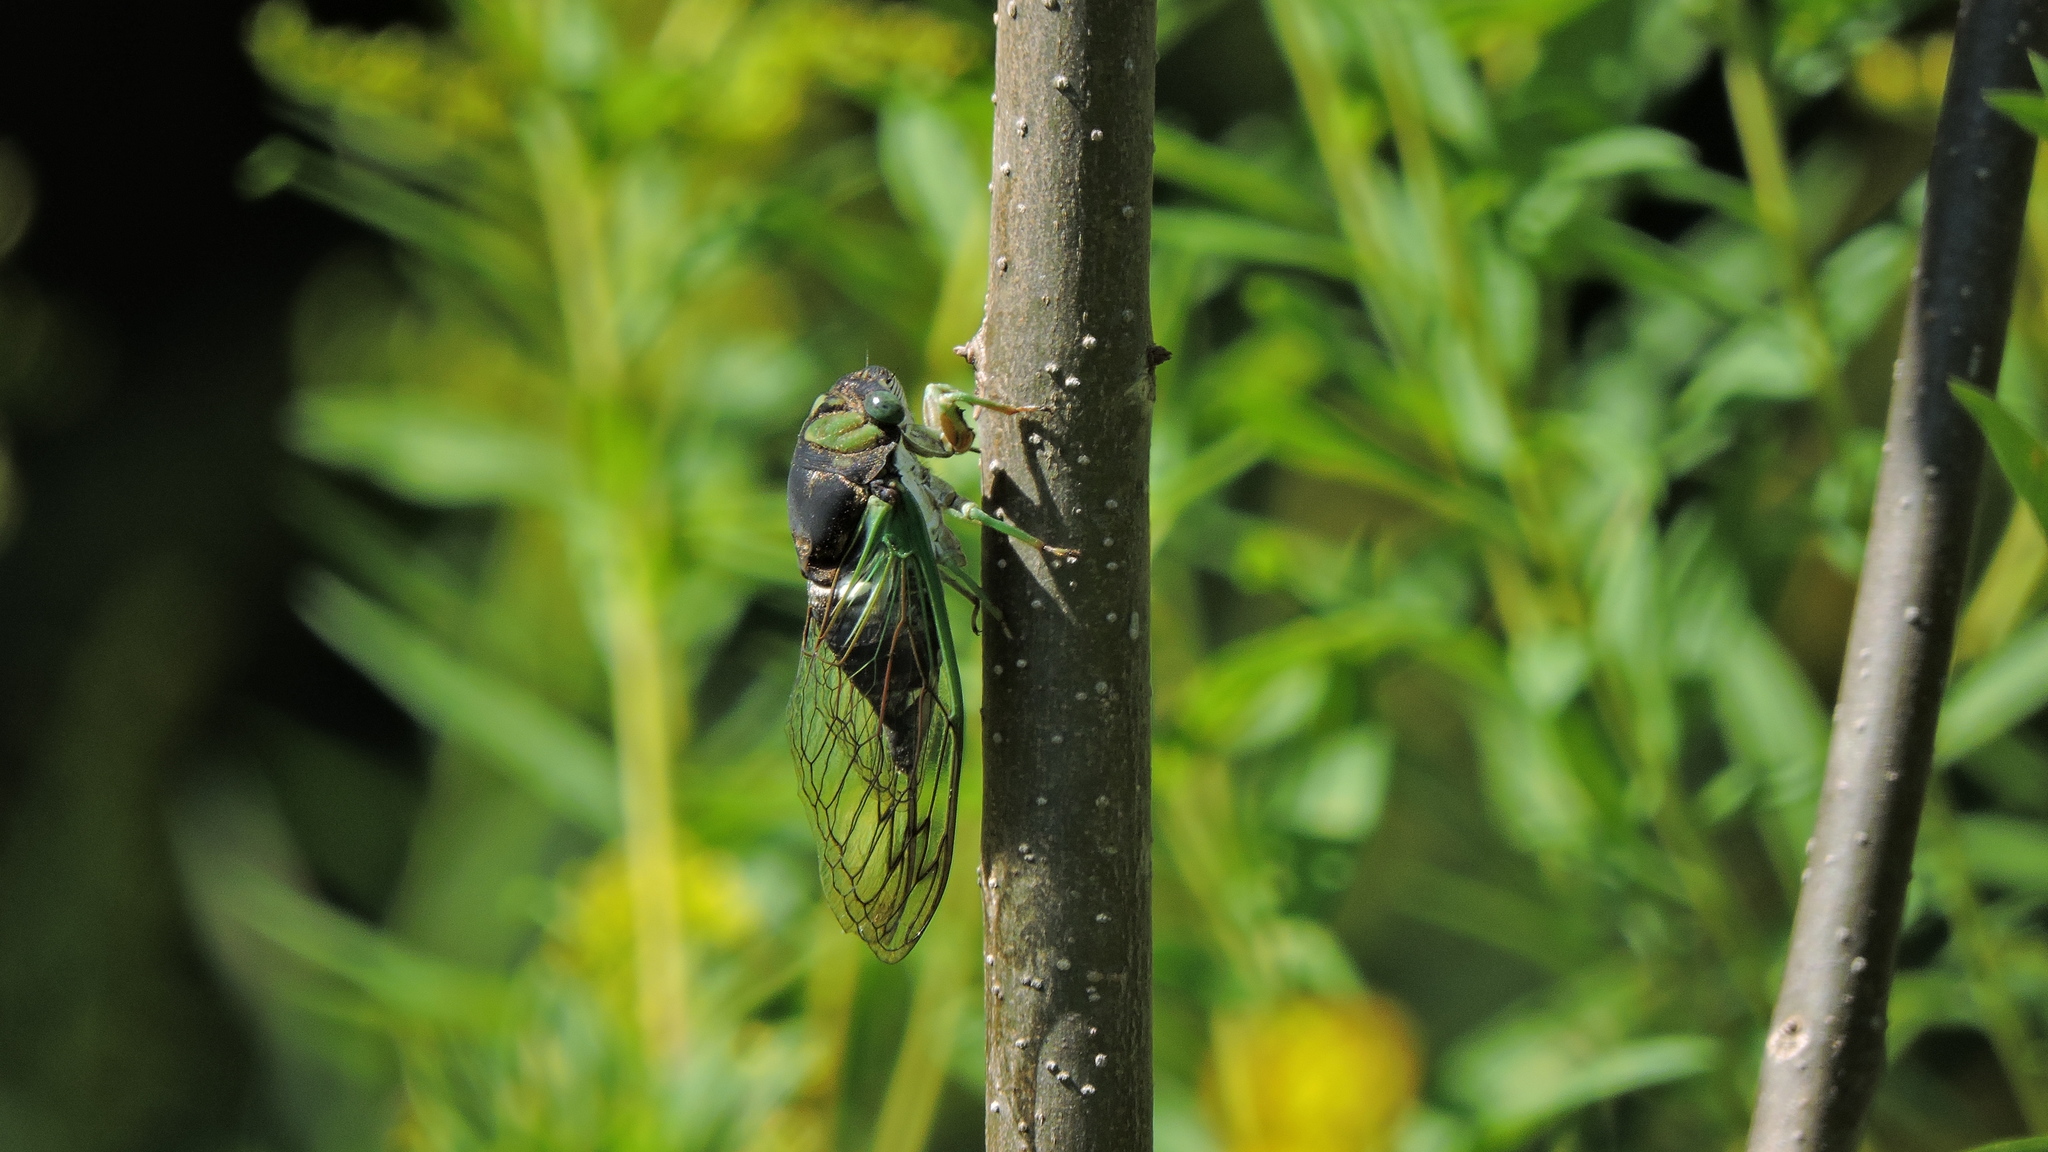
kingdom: Animalia
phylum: Arthropoda
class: Insecta
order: Hemiptera
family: Cicadidae
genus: Neotibicen
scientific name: Neotibicen tibicen
